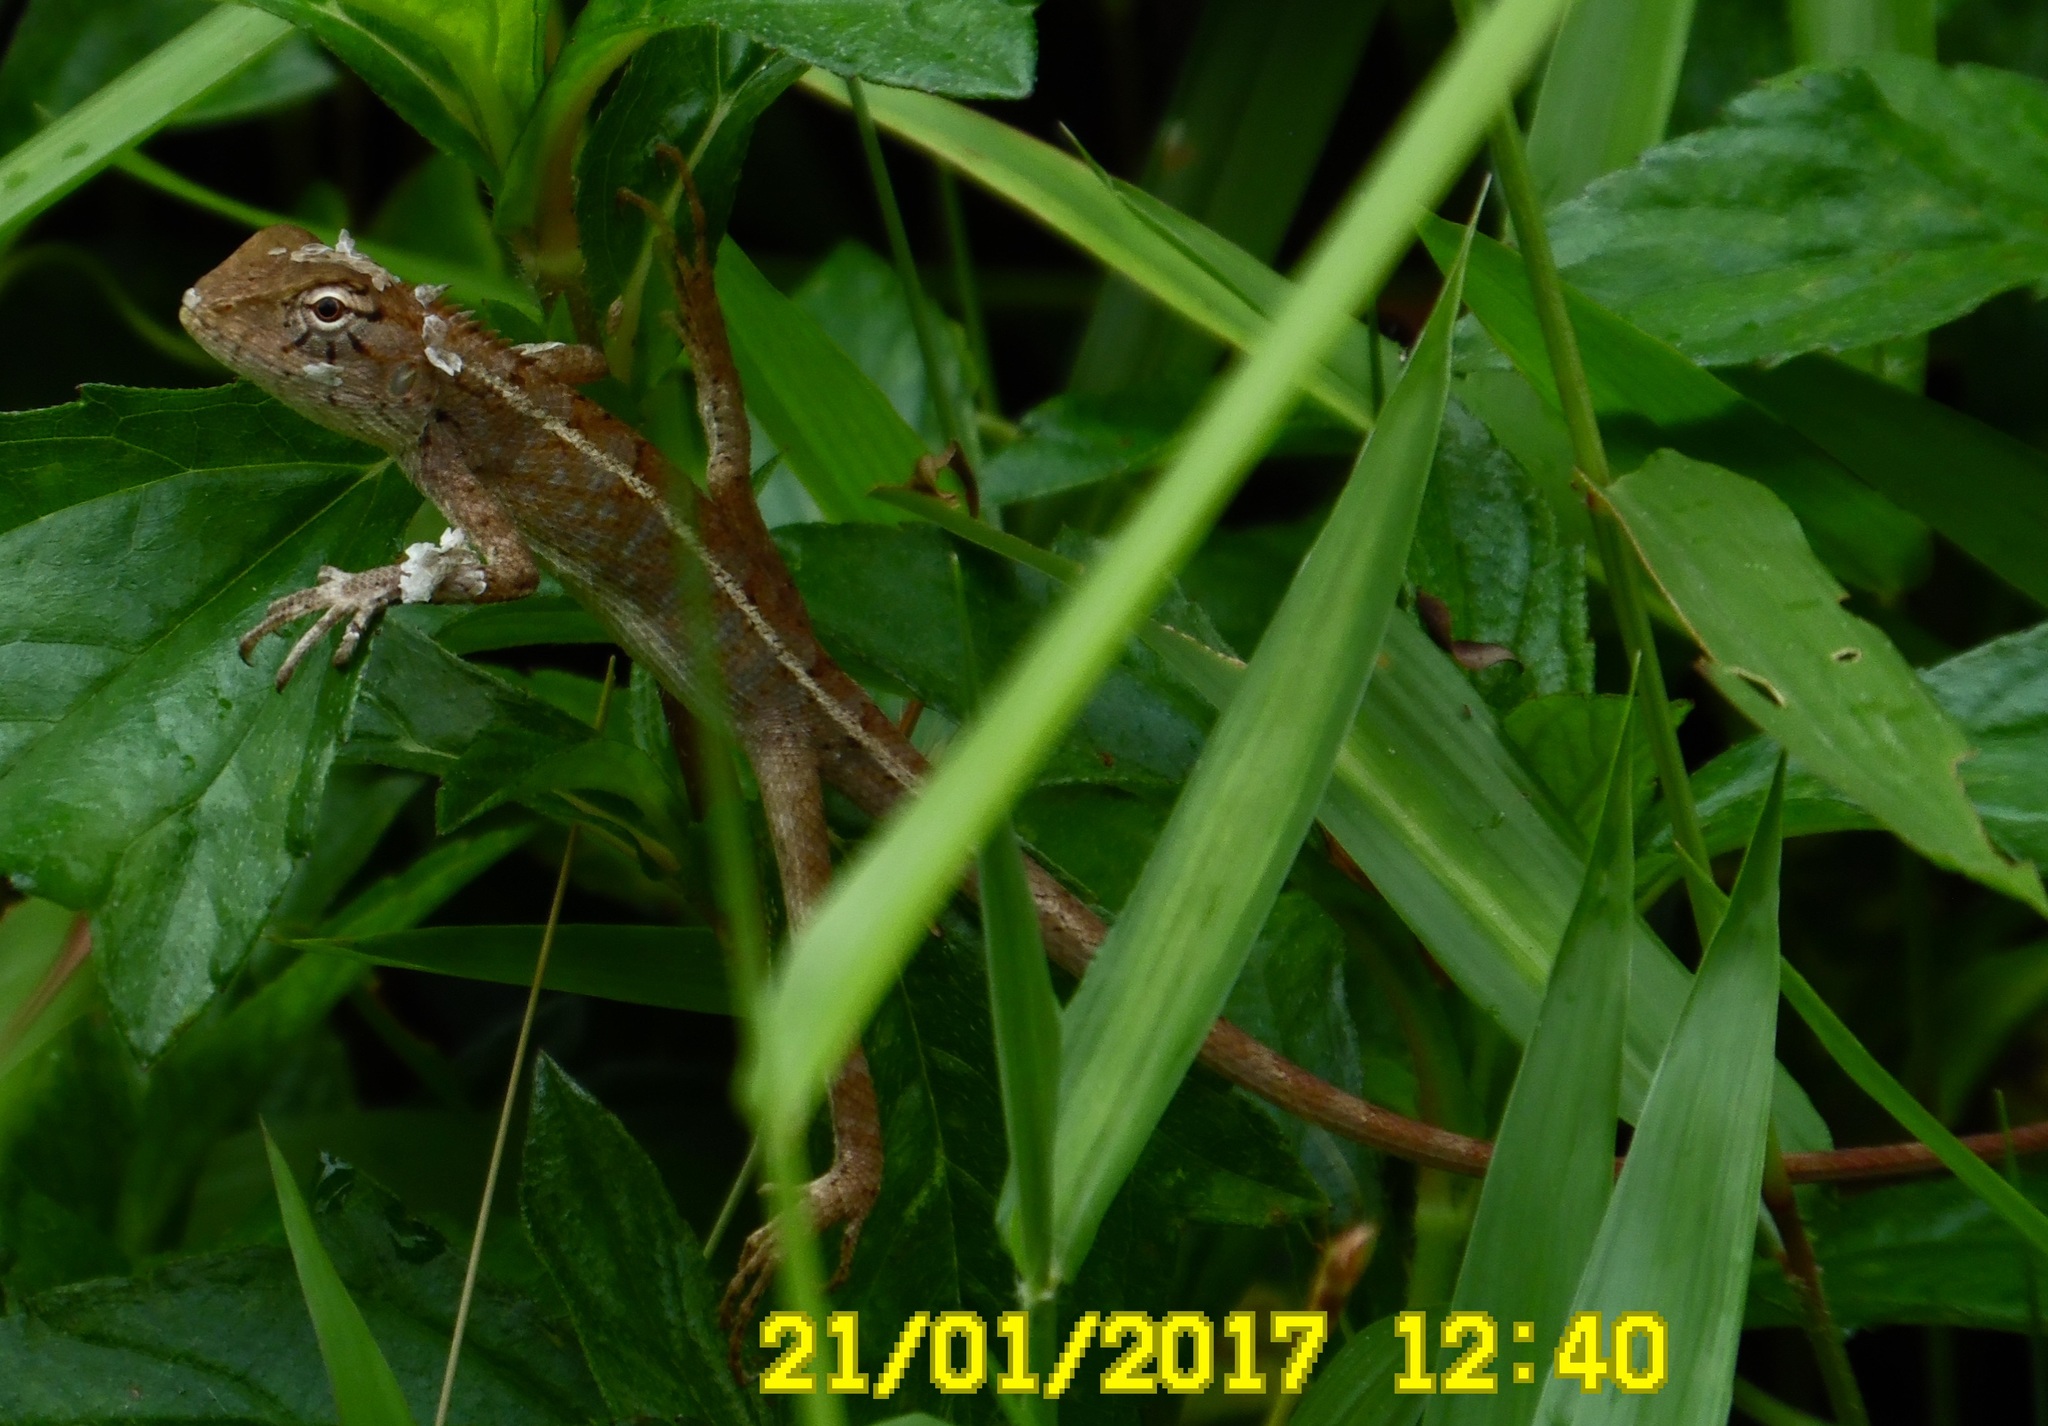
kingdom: Animalia
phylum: Chordata
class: Squamata
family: Agamidae
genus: Calotes
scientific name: Calotes versicolor
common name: Oriental garden lizard
